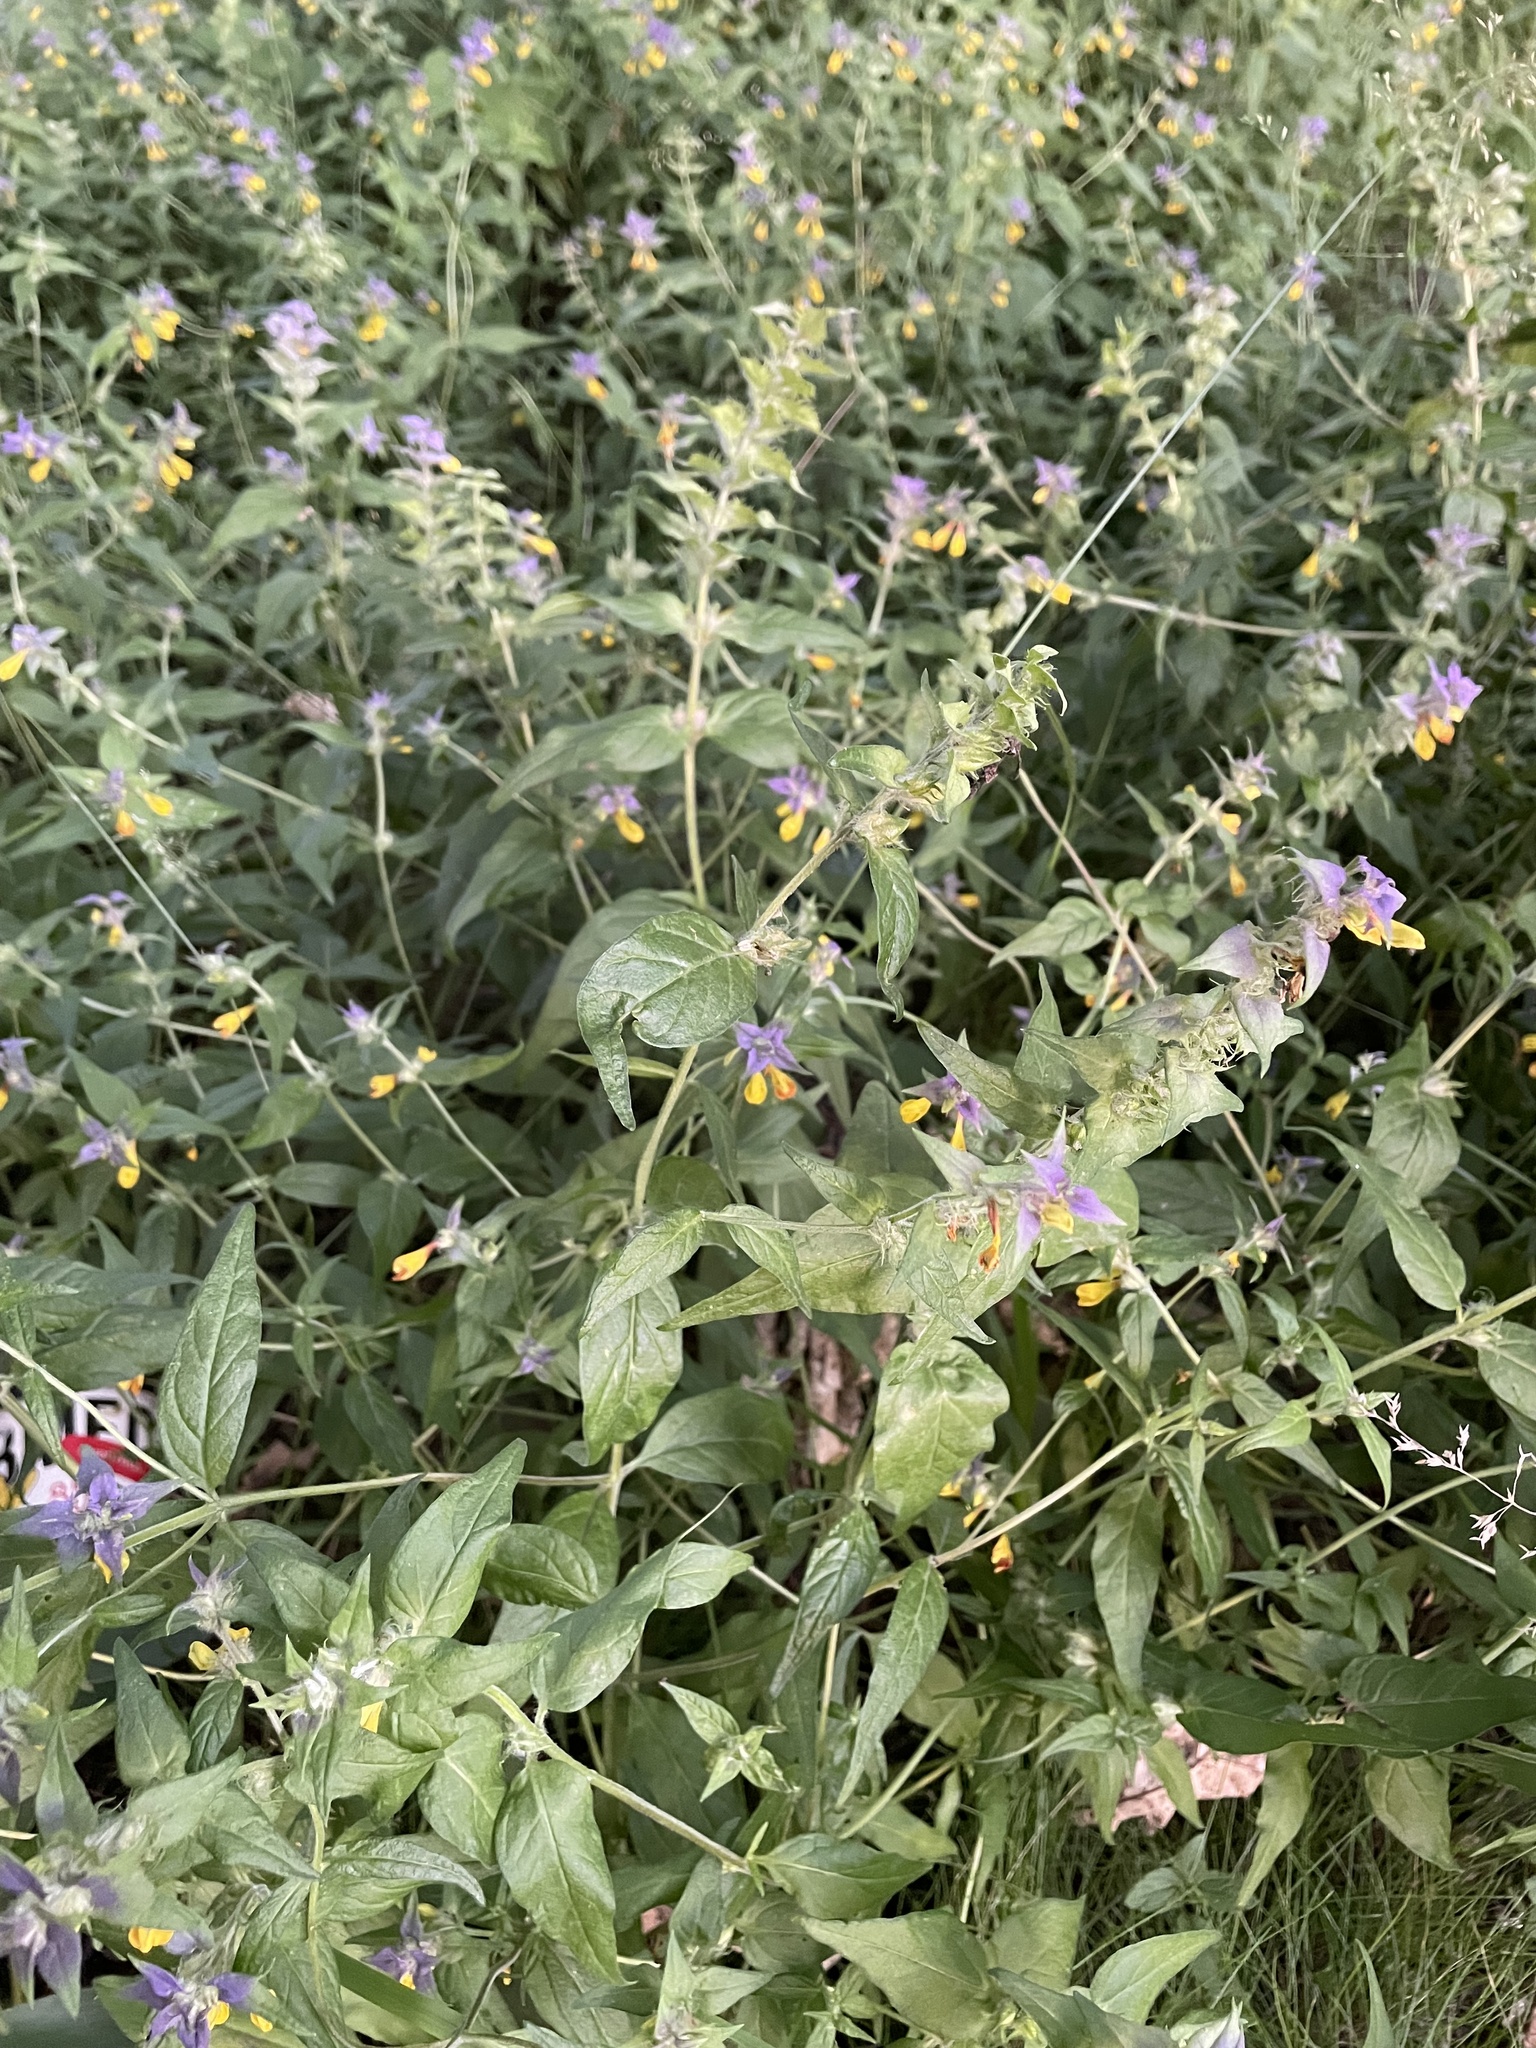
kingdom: Plantae
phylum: Tracheophyta
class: Magnoliopsida
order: Lamiales
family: Orobanchaceae
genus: Melampyrum
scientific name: Melampyrum nemorosum
